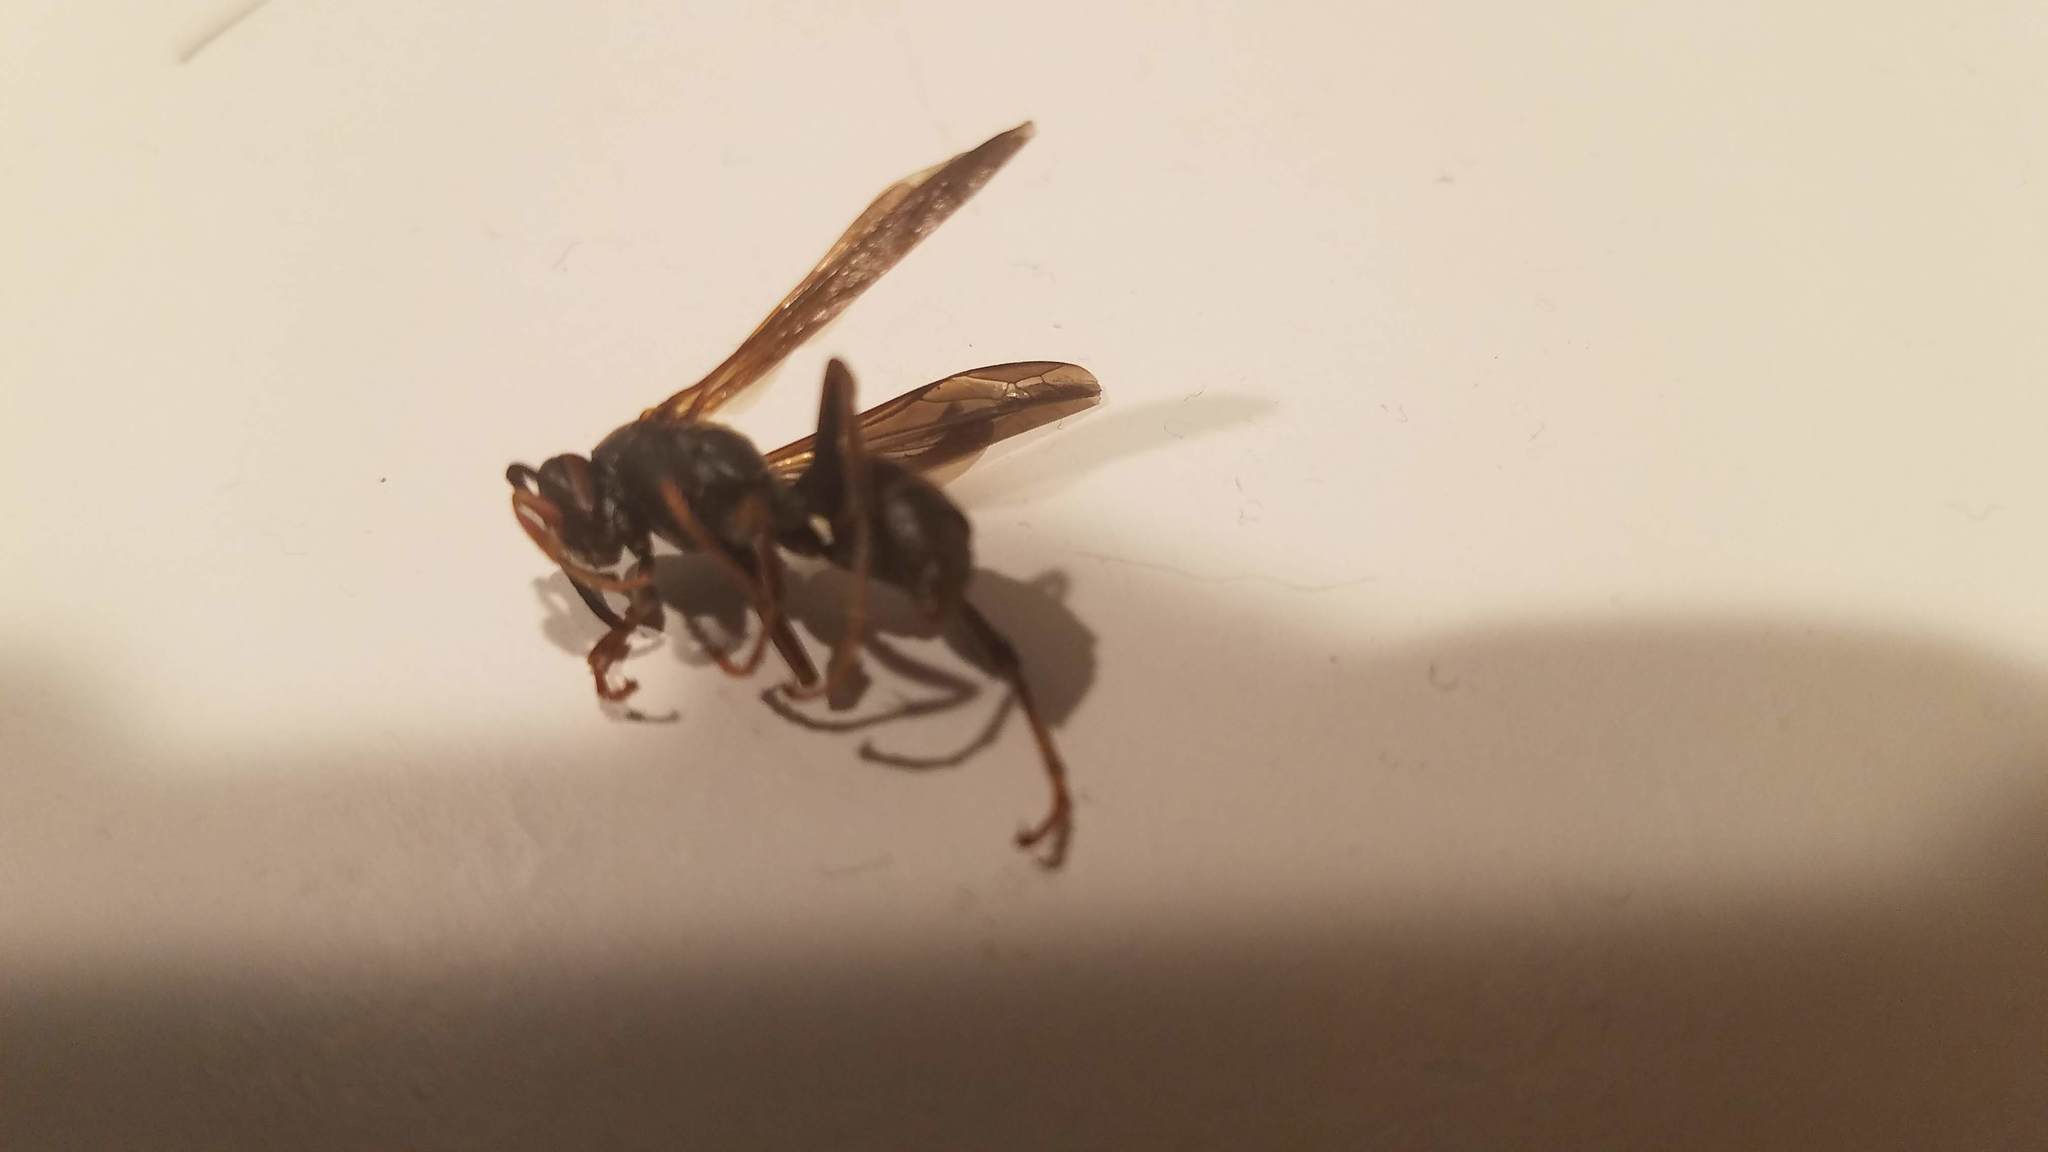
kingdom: Animalia
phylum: Arthropoda
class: Insecta
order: Hymenoptera
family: Eumenidae
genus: Polistes
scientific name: Polistes fuscatus
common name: Dark paper wasp
